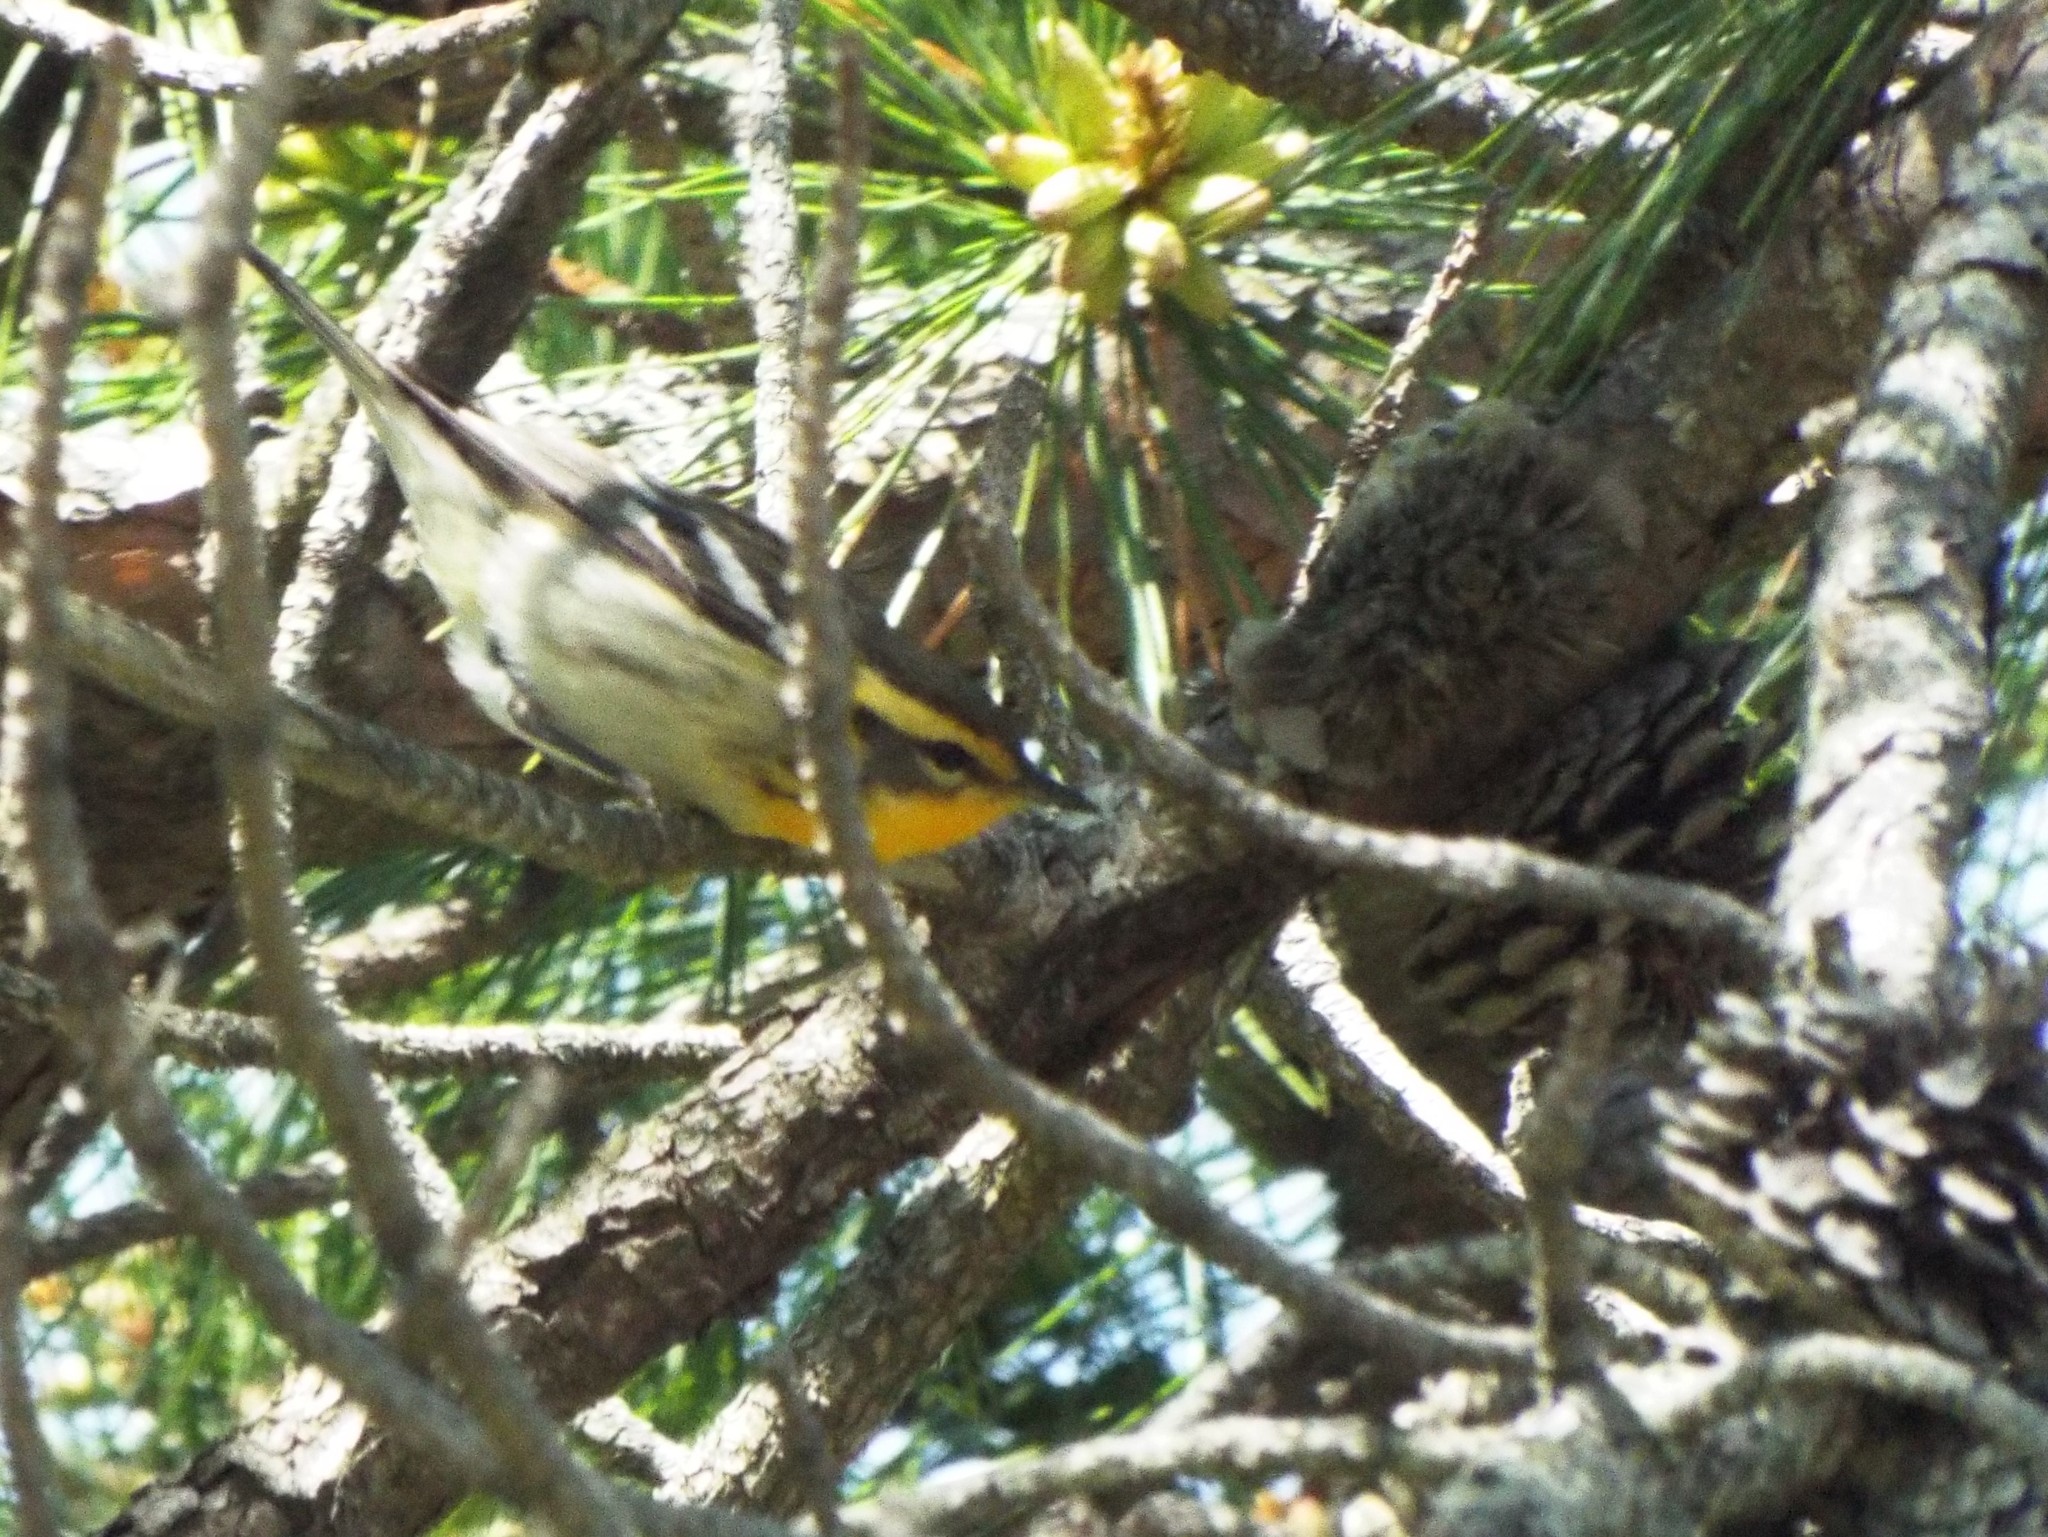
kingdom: Animalia
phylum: Chordata
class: Aves
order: Passeriformes
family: Parulidae
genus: Setophaga
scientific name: Setophaga fusca
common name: Blackburnian warbler
